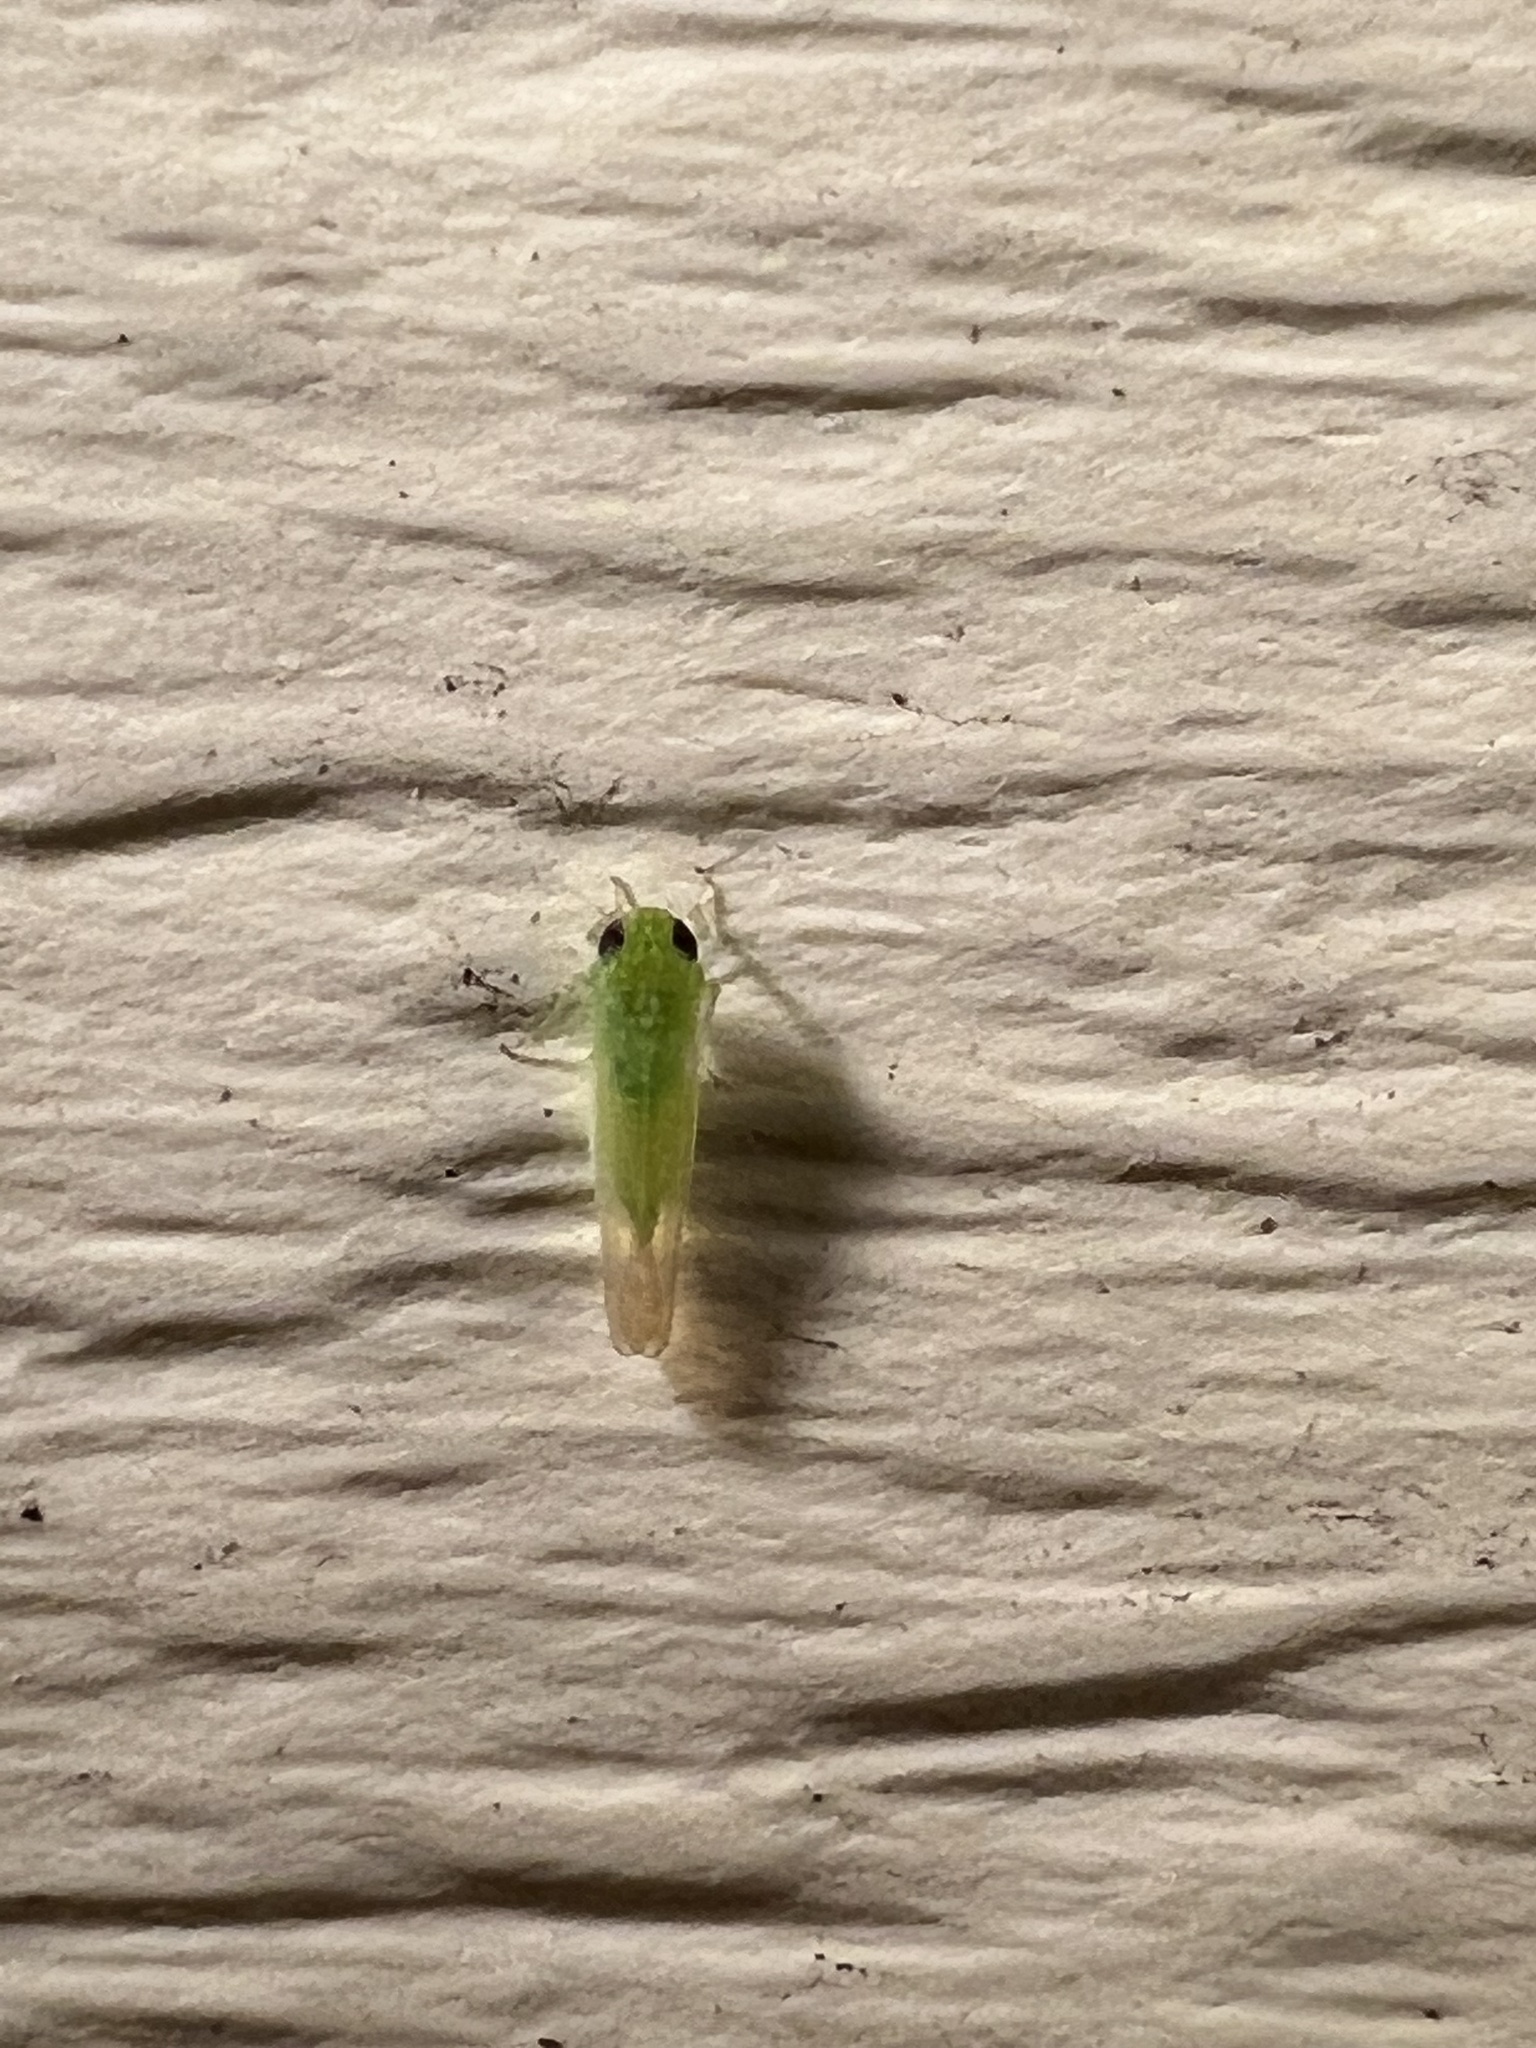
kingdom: Animalia
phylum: Arthropoda
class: Insecta
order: Hemiptera
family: Cicadellidae
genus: Empoasca
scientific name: Empoasca fabae
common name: Potato leafhopper
